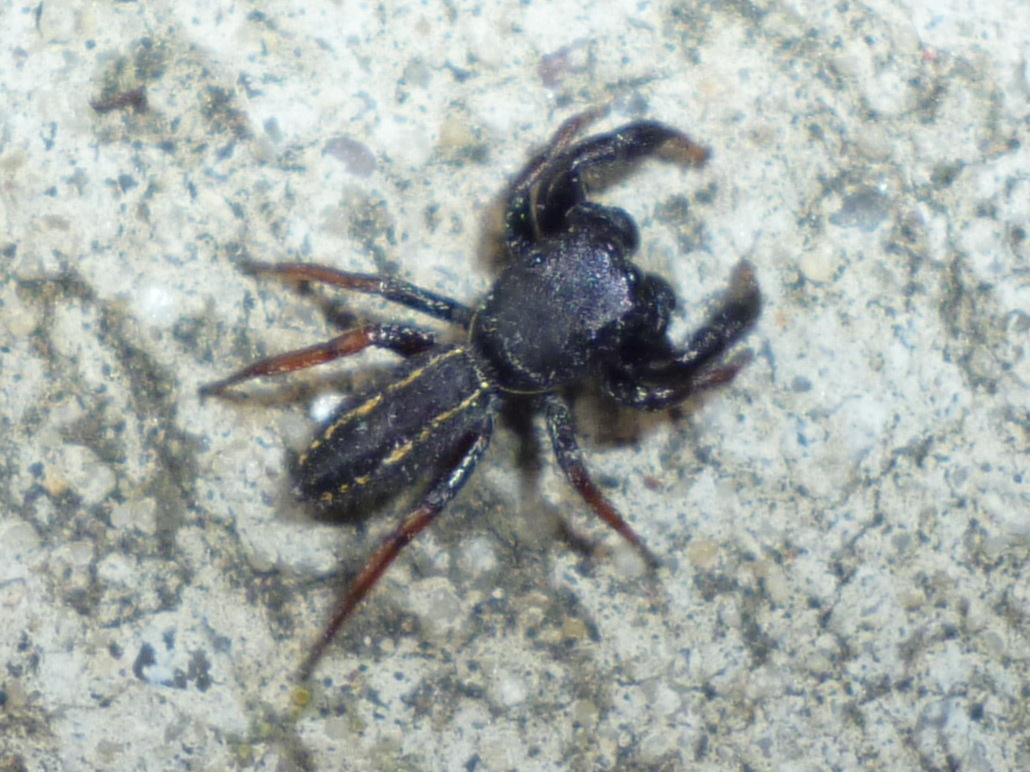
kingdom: Animalia
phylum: Arthropoda
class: Arachnida
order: Araneae
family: Salticidae
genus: Metacyrba
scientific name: Metacyrba taeniola
